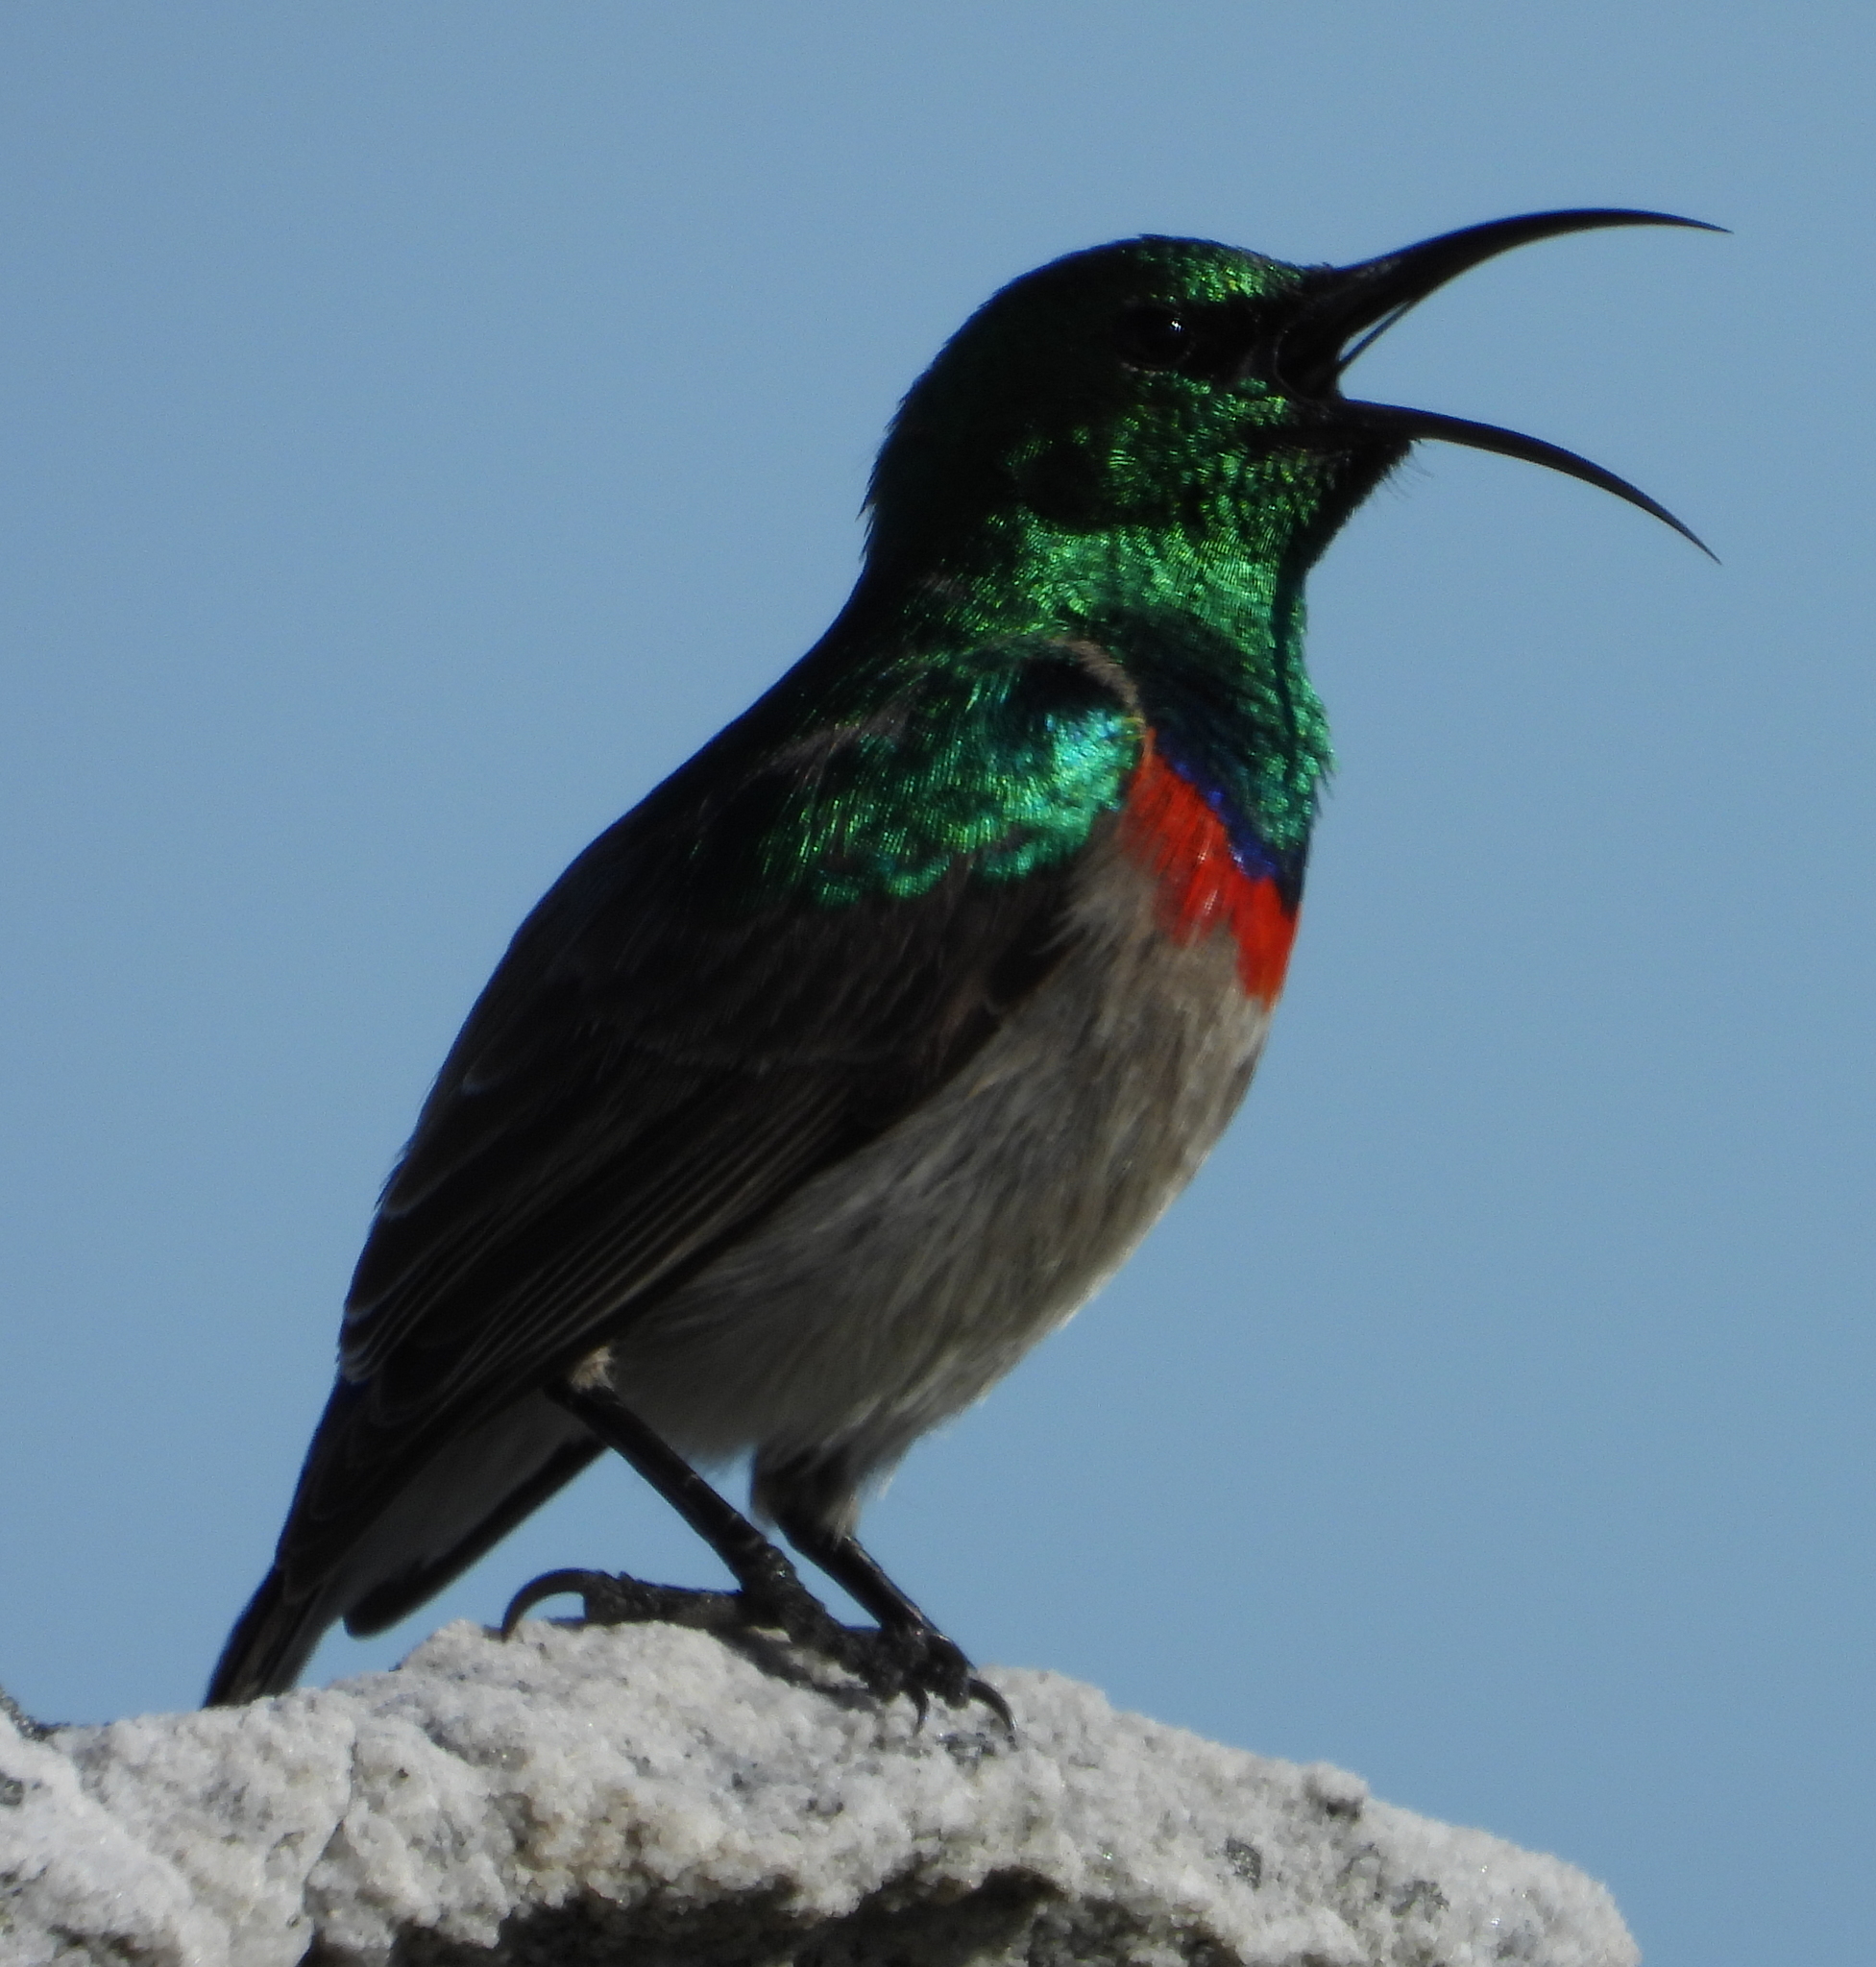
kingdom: Animalia
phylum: Chordata
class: Aves
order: Passeriformes
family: Nectariniidae
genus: Cinnyris
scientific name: Cinnyris chalybeus
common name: Southern double-collared sunbird
